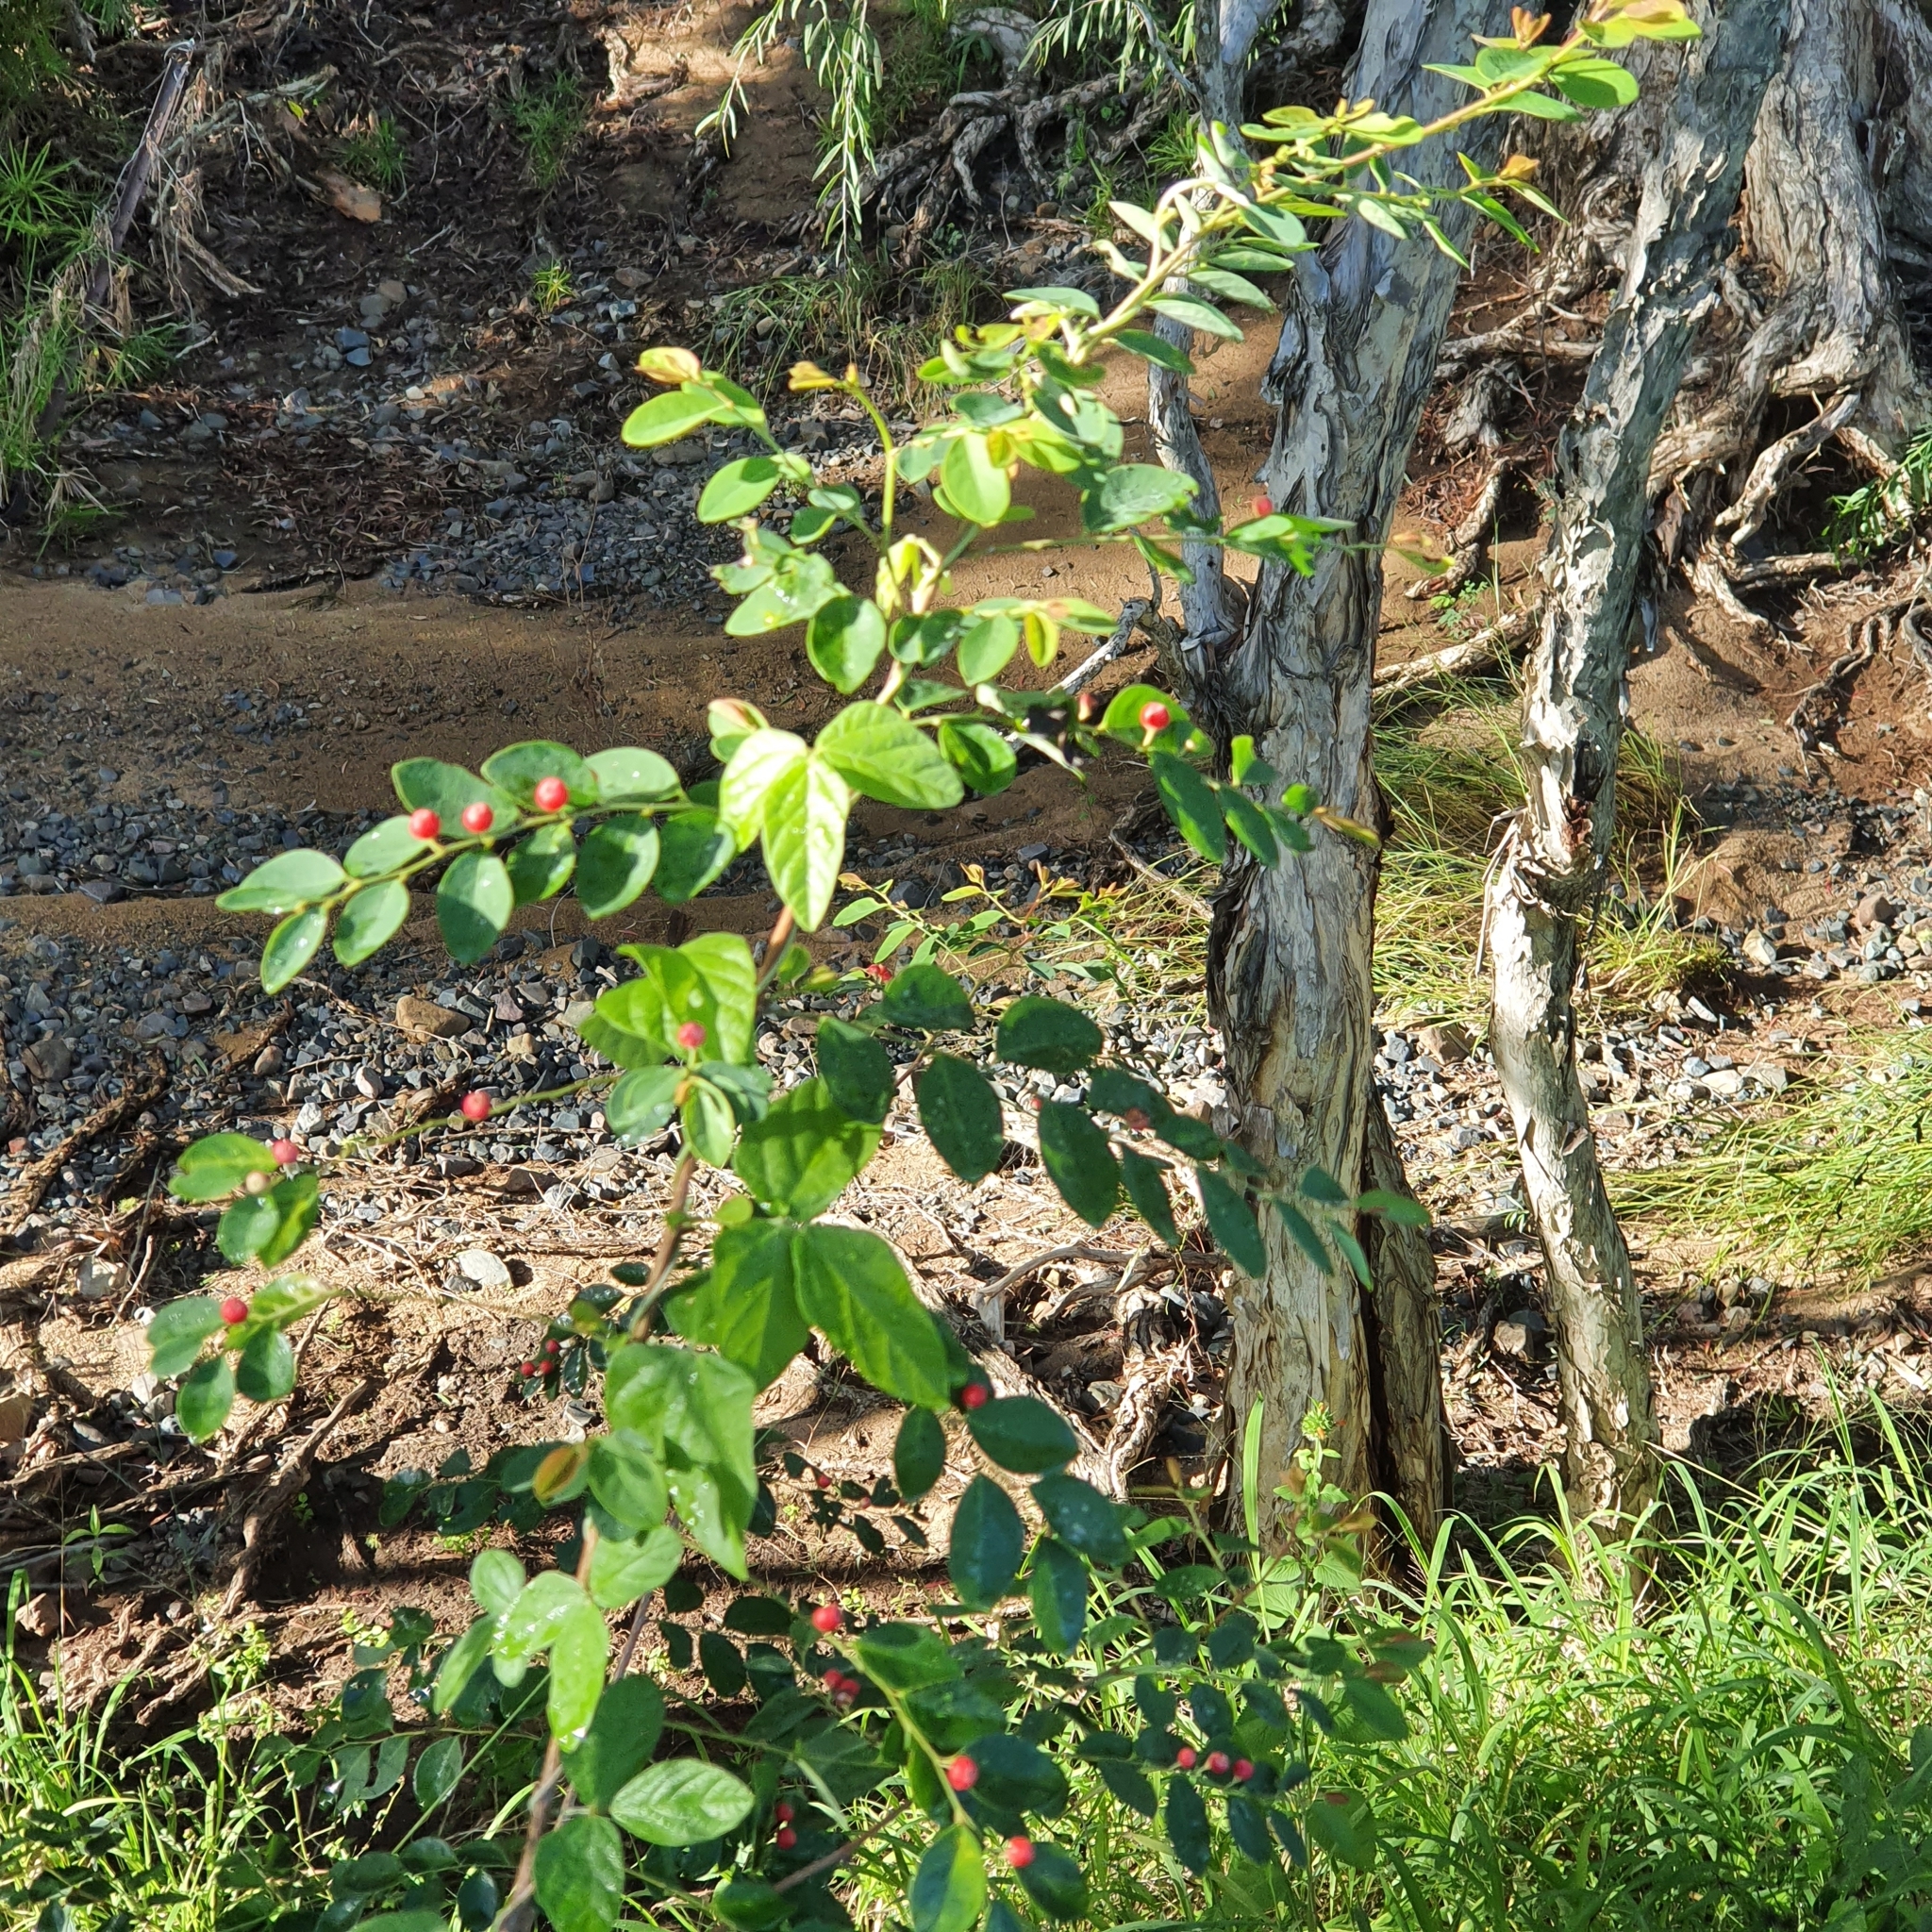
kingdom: Plantae
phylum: Tracheophyta
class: Magnoliopsida
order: Malpighiales
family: Phyllanthaceae
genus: Breynia
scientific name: Breynia oblongifolia
